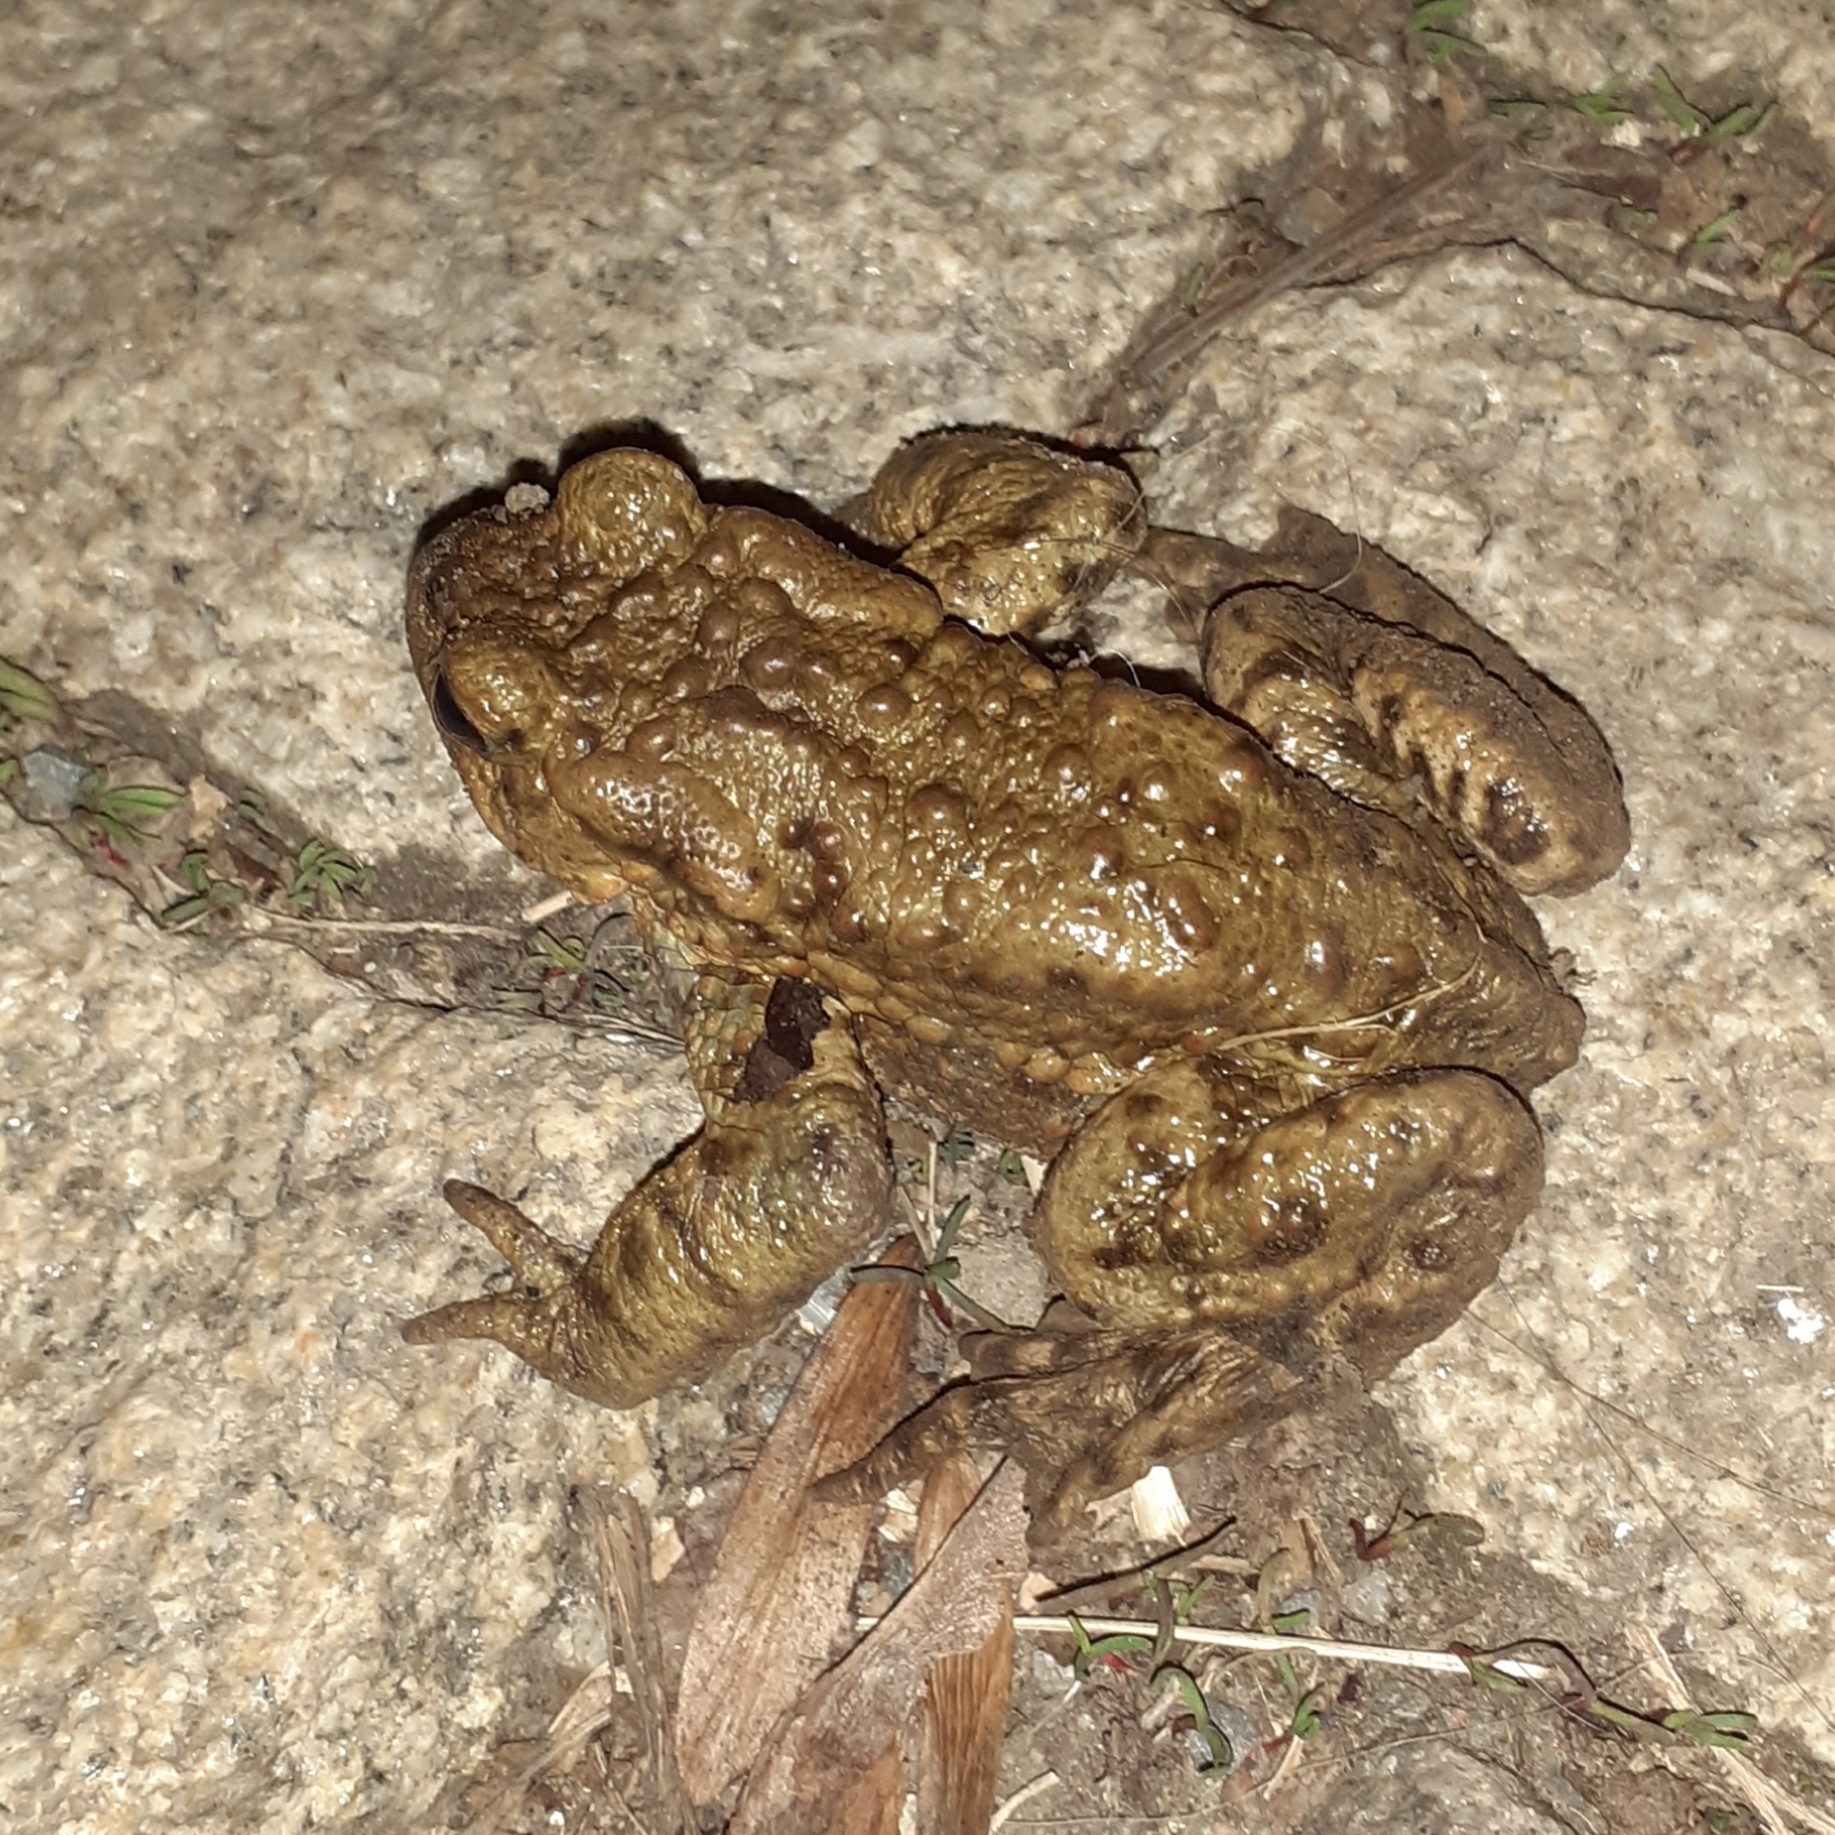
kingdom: Animalia
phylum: Chordata
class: Amphibia
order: Anura
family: Bufonidae
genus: Bufo
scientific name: Bufo bufo
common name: Common toad
